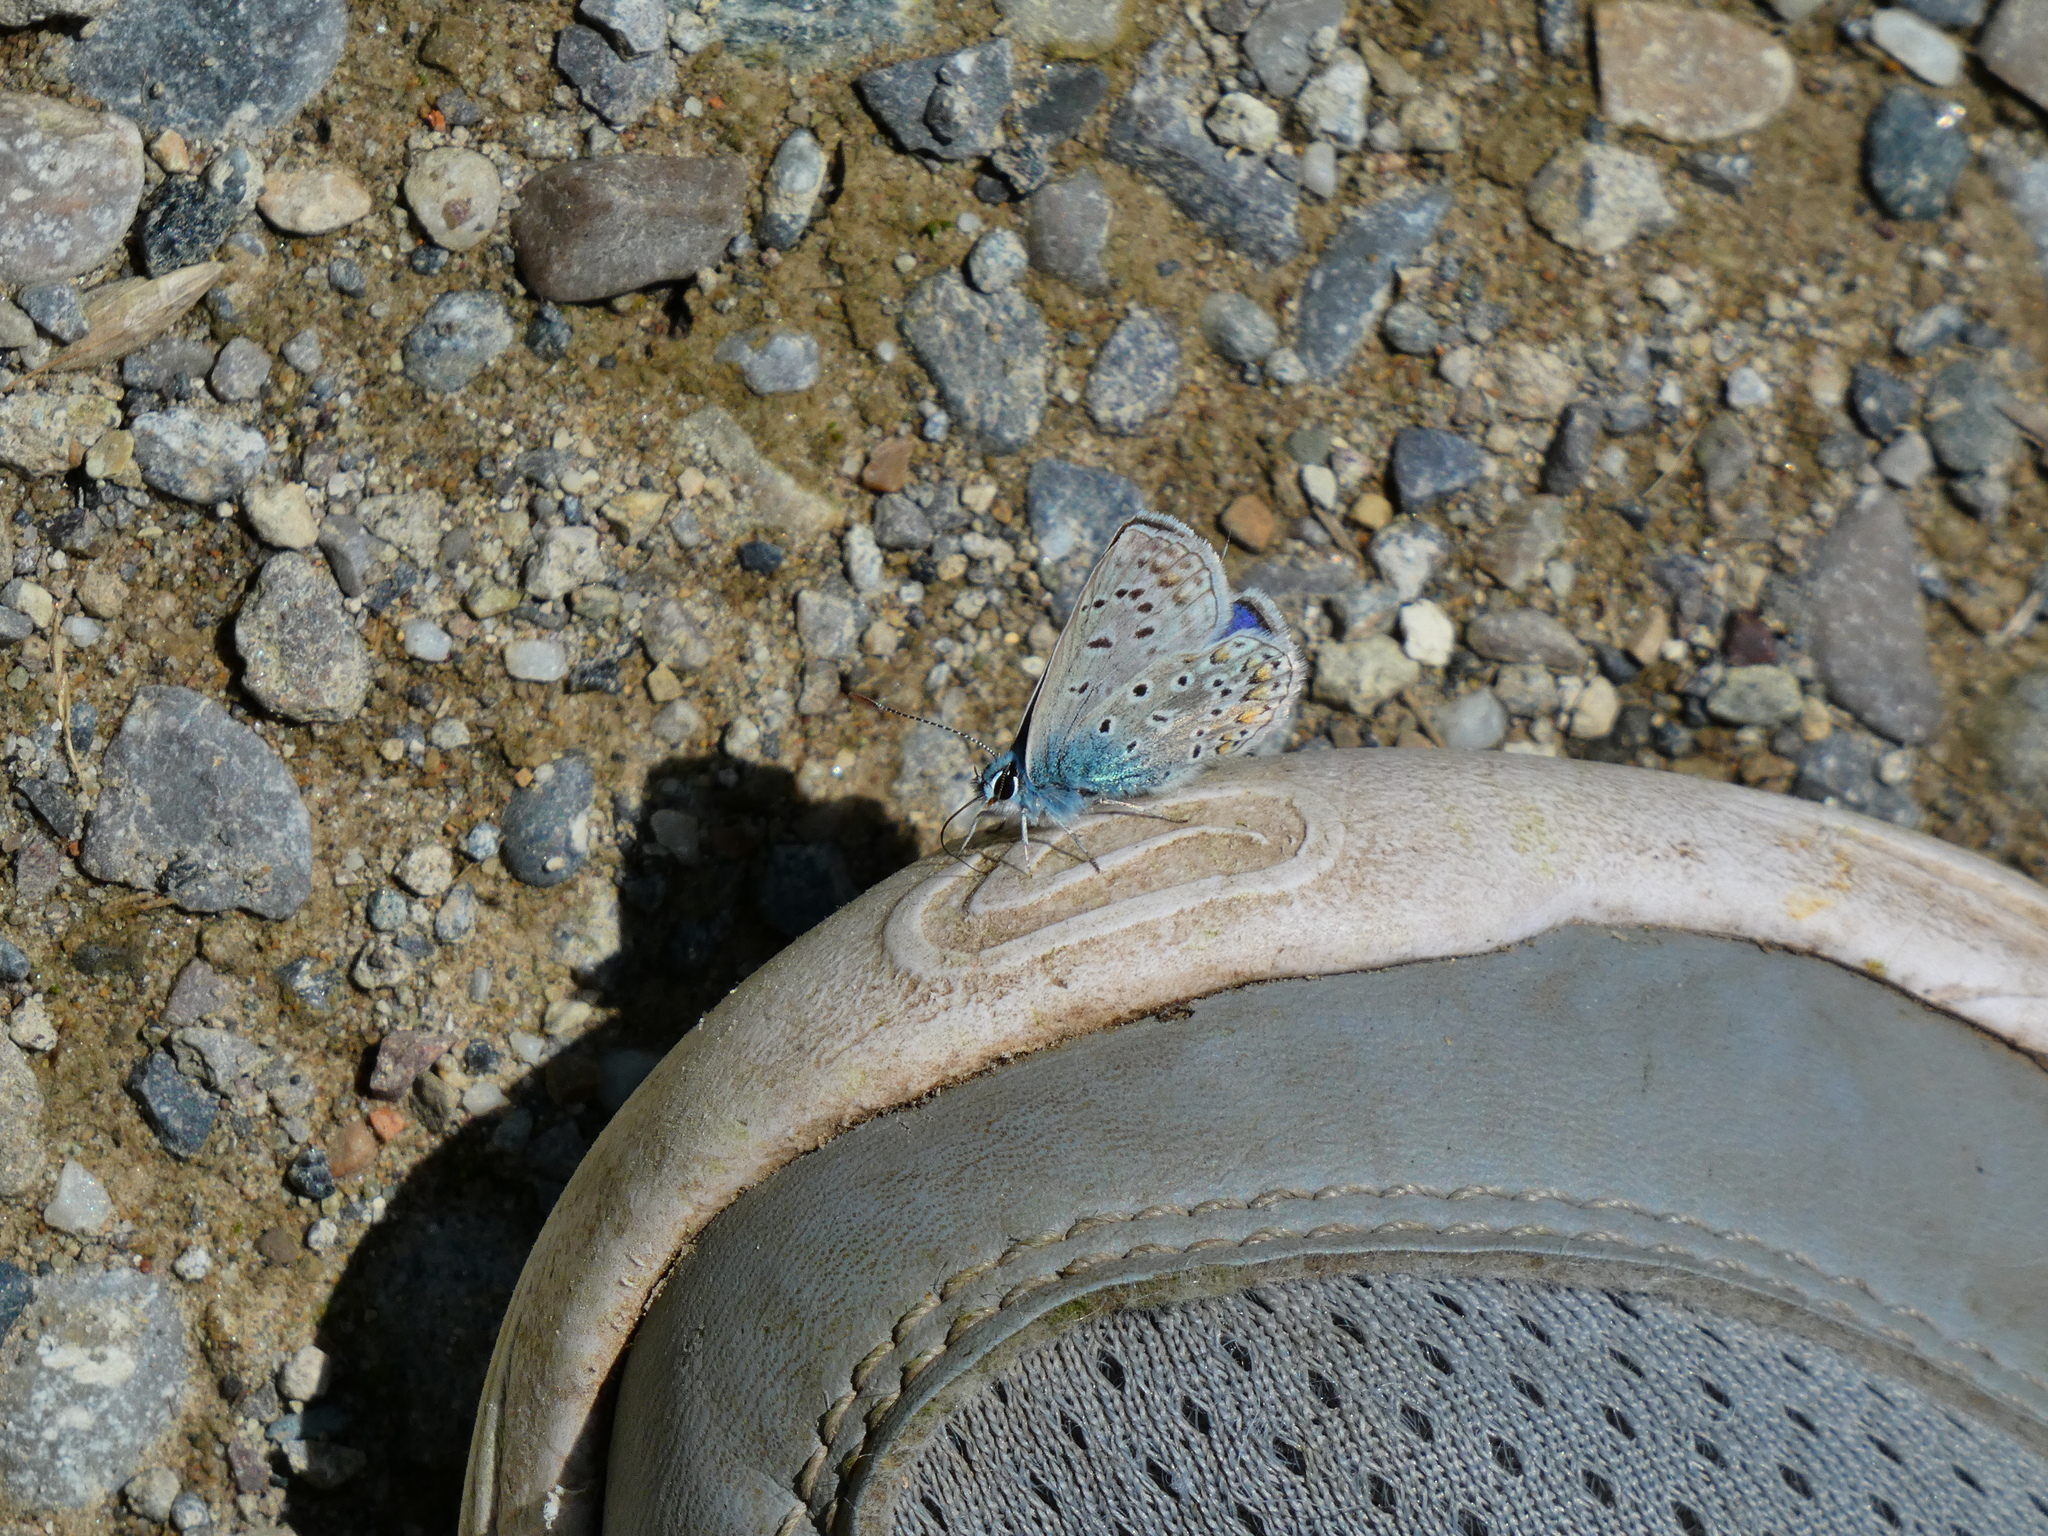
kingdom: Animalia
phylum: Arthropoda
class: Insecta
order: Lepidoptera
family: Lycaenidae
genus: Polyommatus
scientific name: Polyommatus icarus
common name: Common blue
